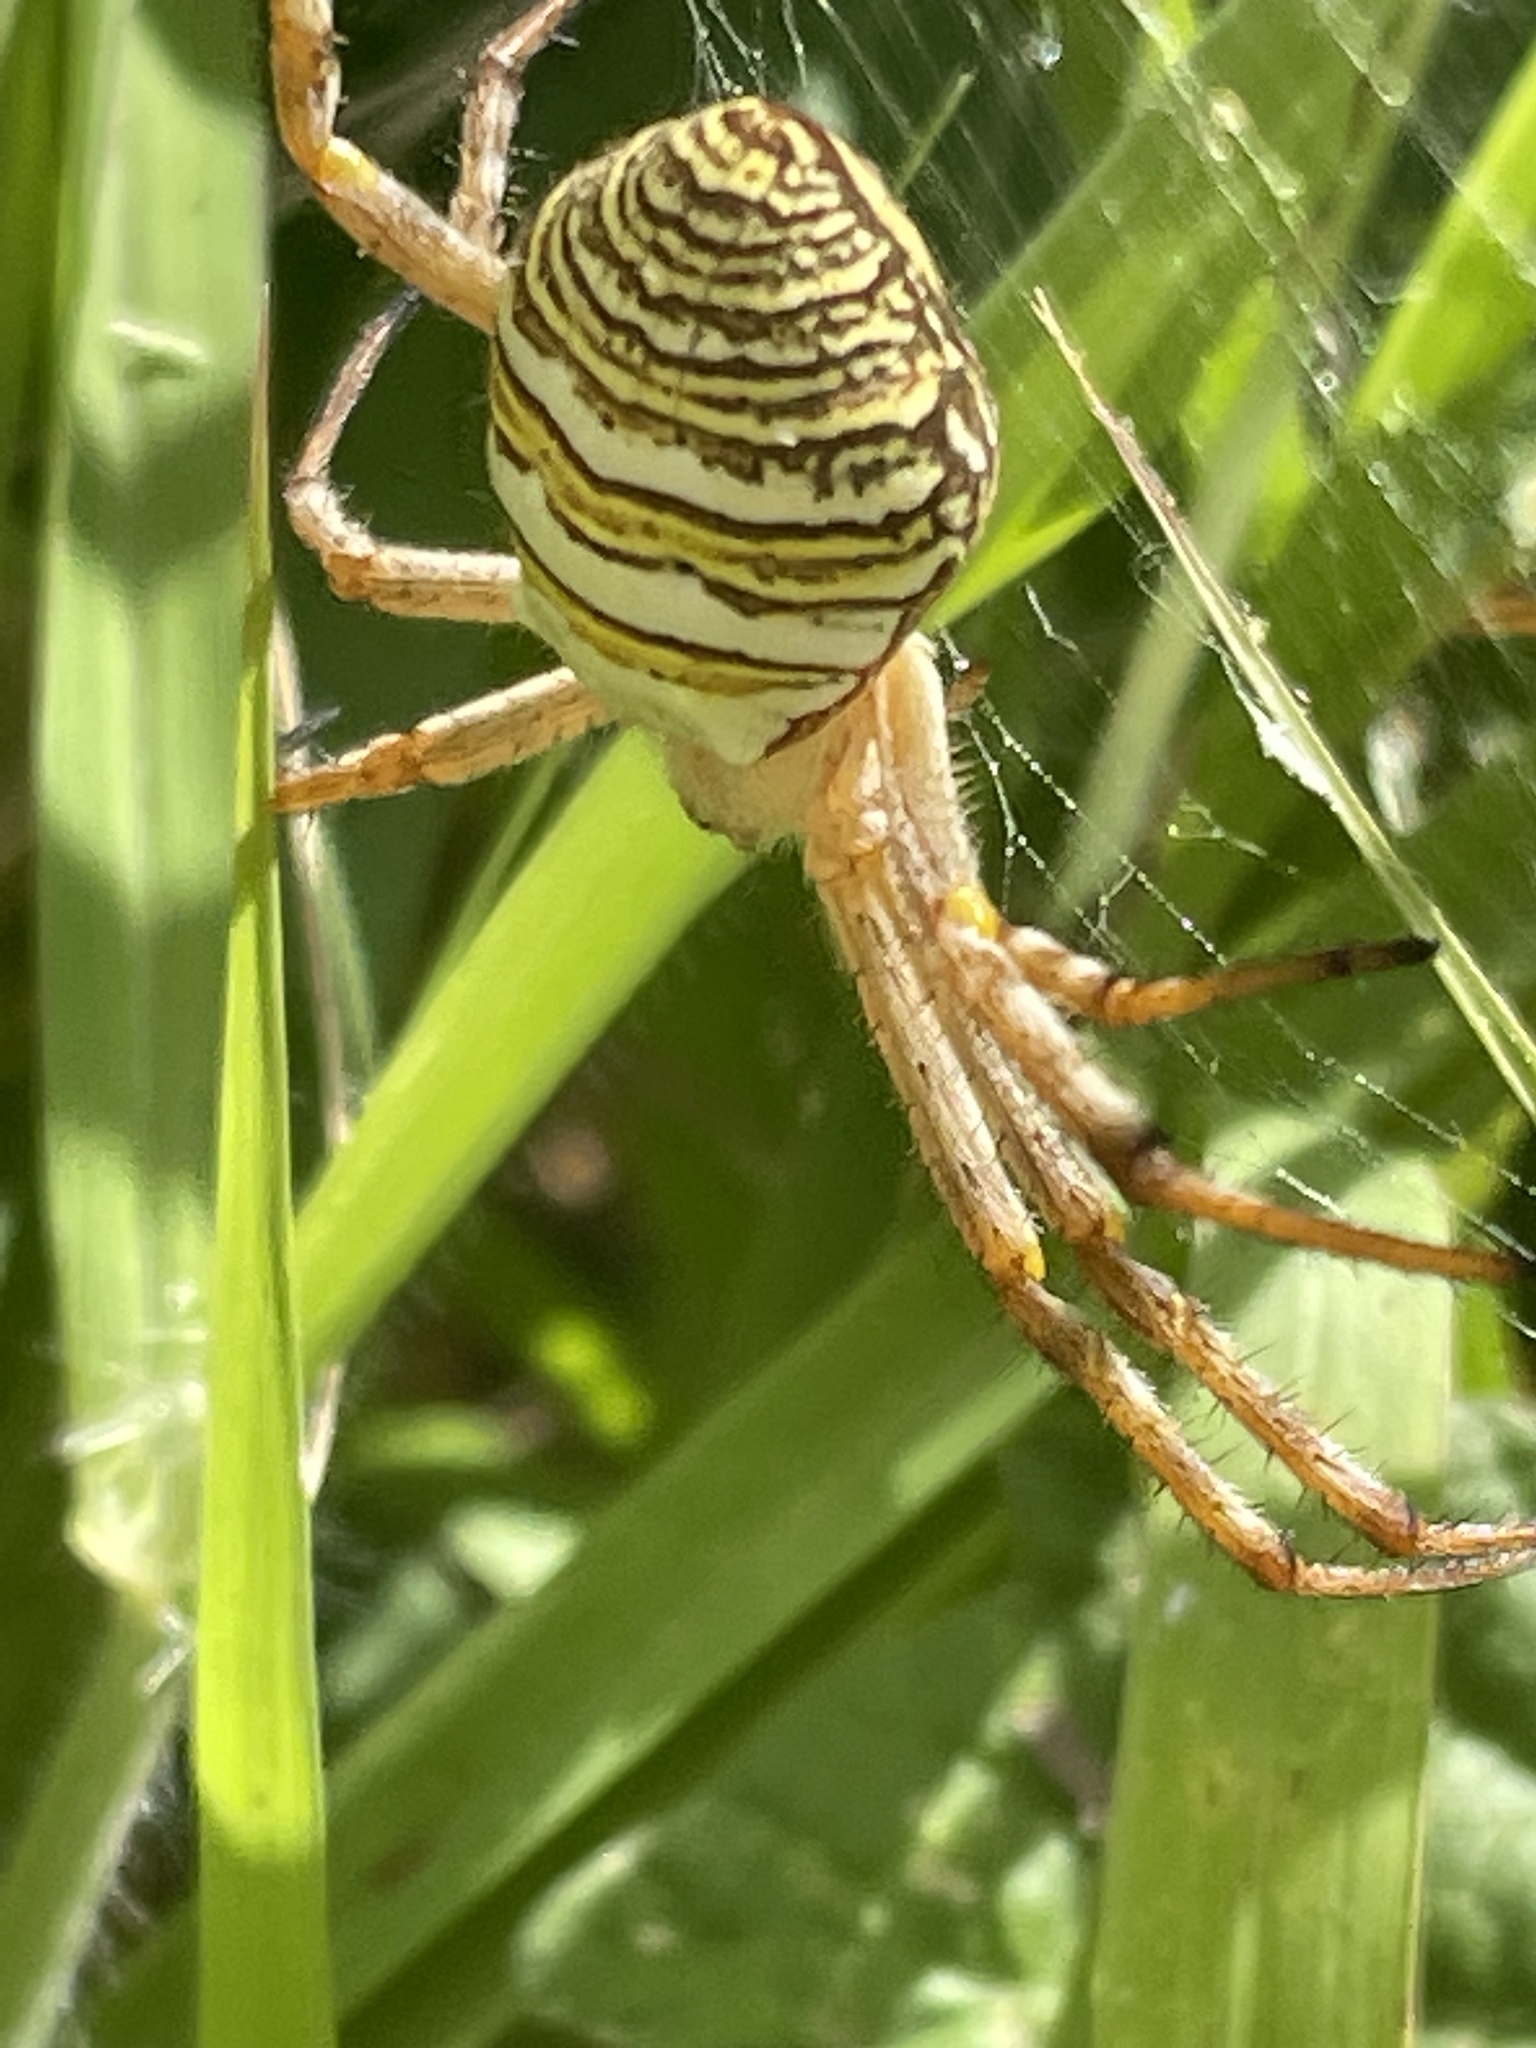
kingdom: Animalia
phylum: Arthropoda
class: Arachnida
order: Araneae
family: Araneidae
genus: Argiope
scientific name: Argiope magnifica
